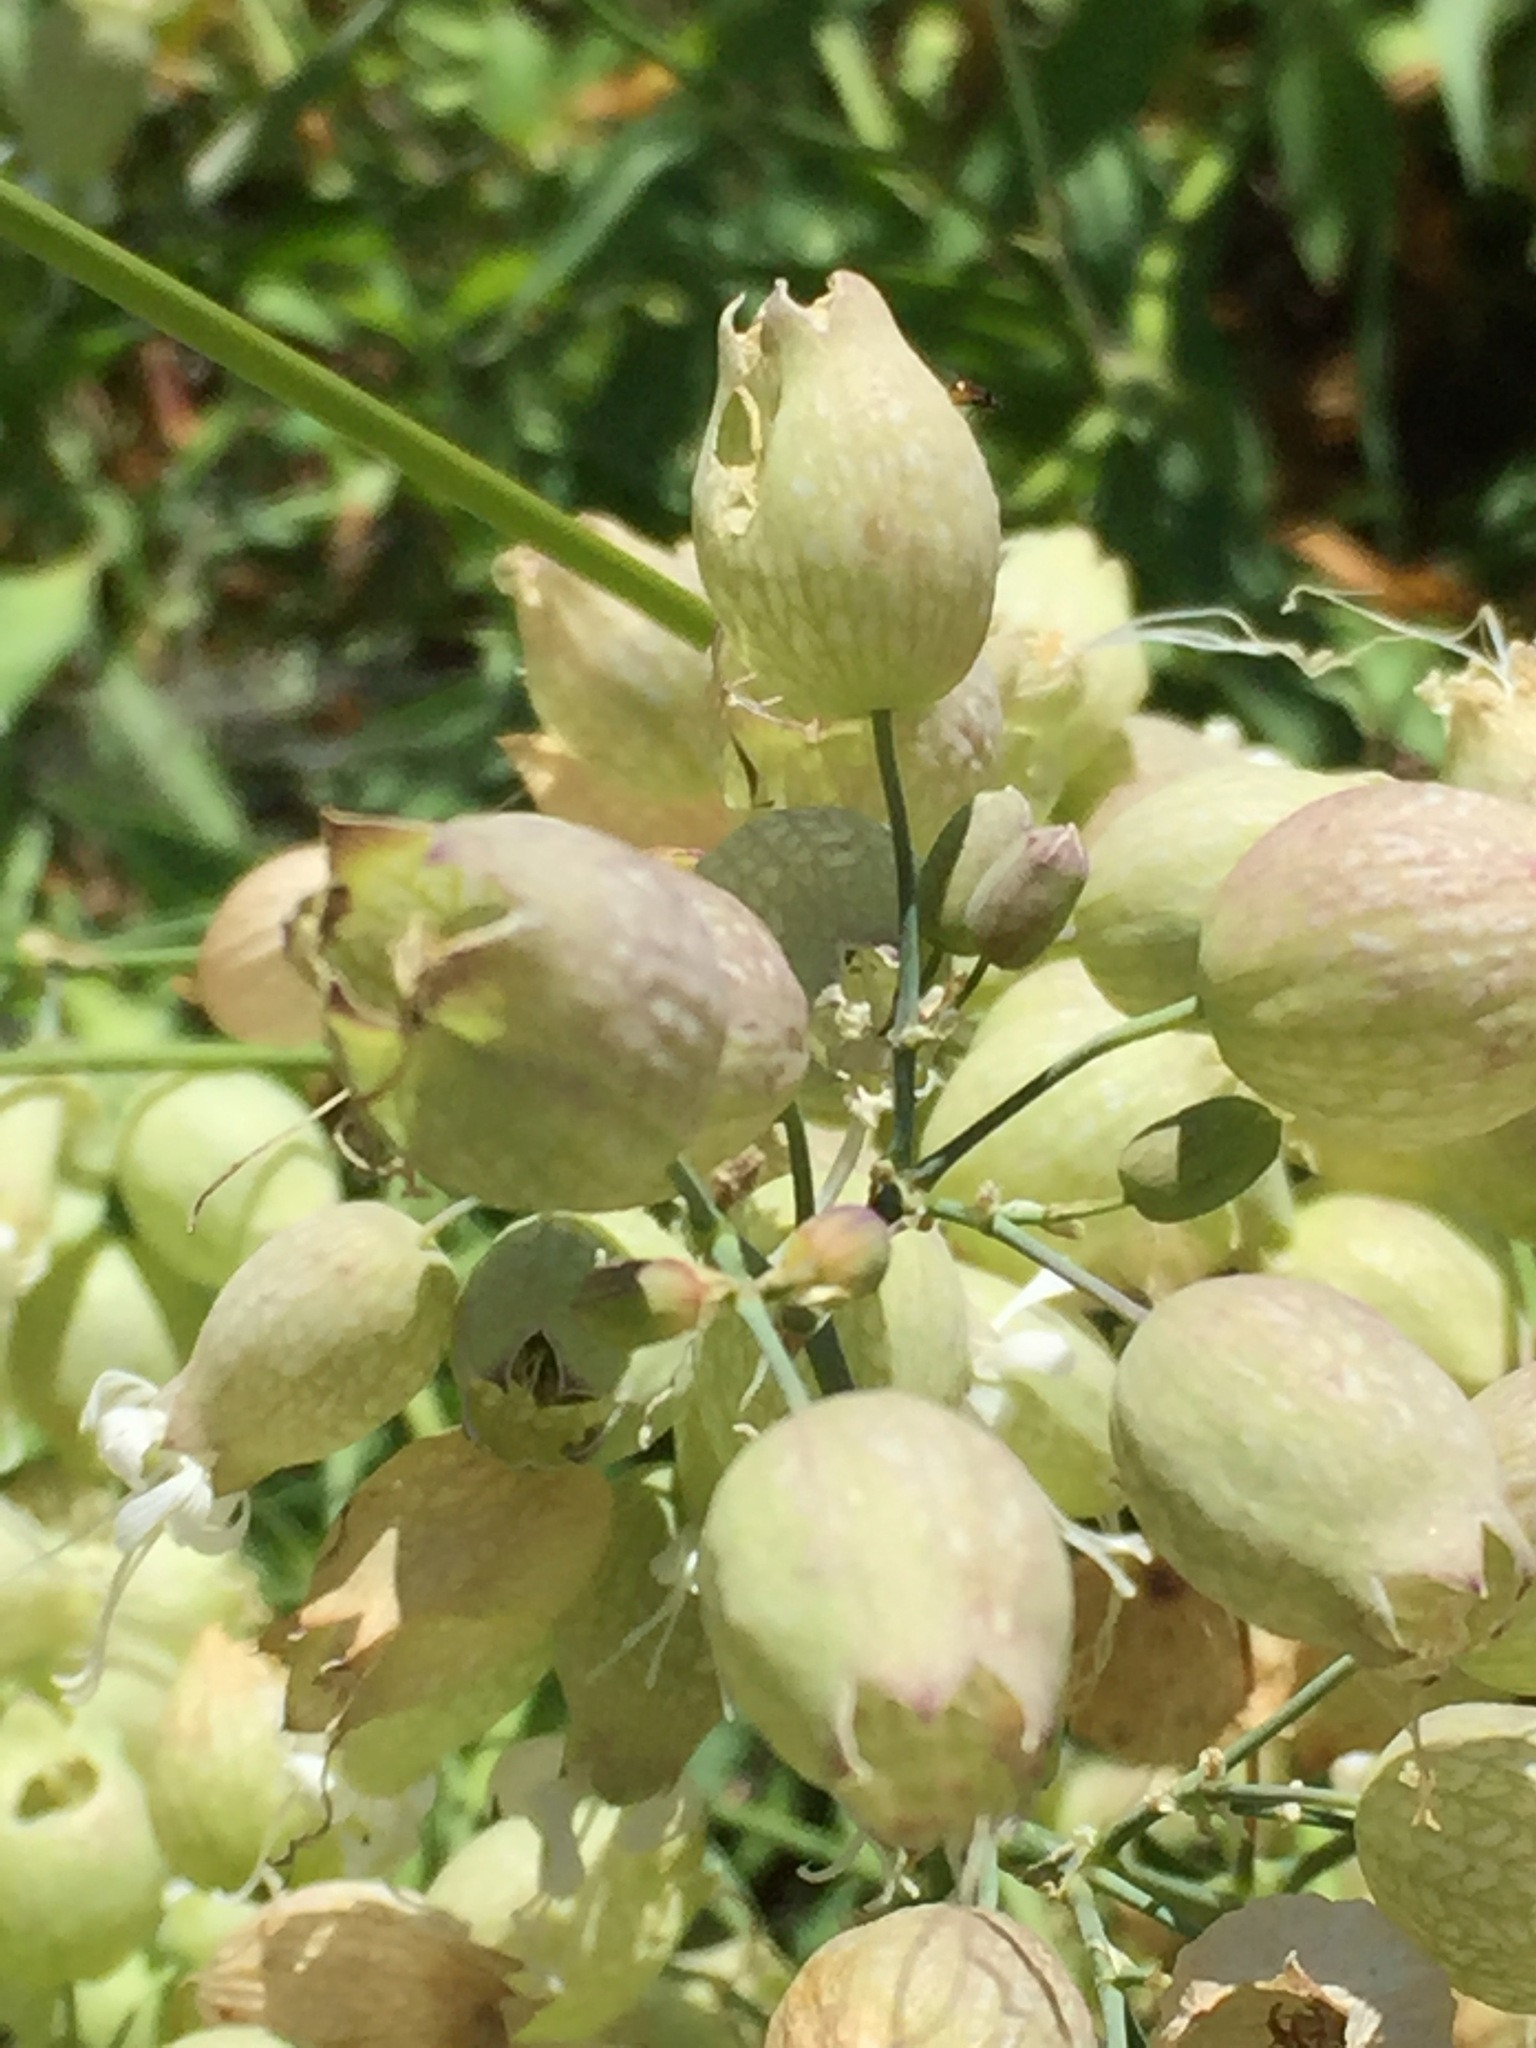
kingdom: Plantae
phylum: Tracheophyta
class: Magnoliopsida
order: Caryophyllales
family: Caryophyllaceae
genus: Silene
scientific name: Silene vulgaris
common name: Bladder campion
